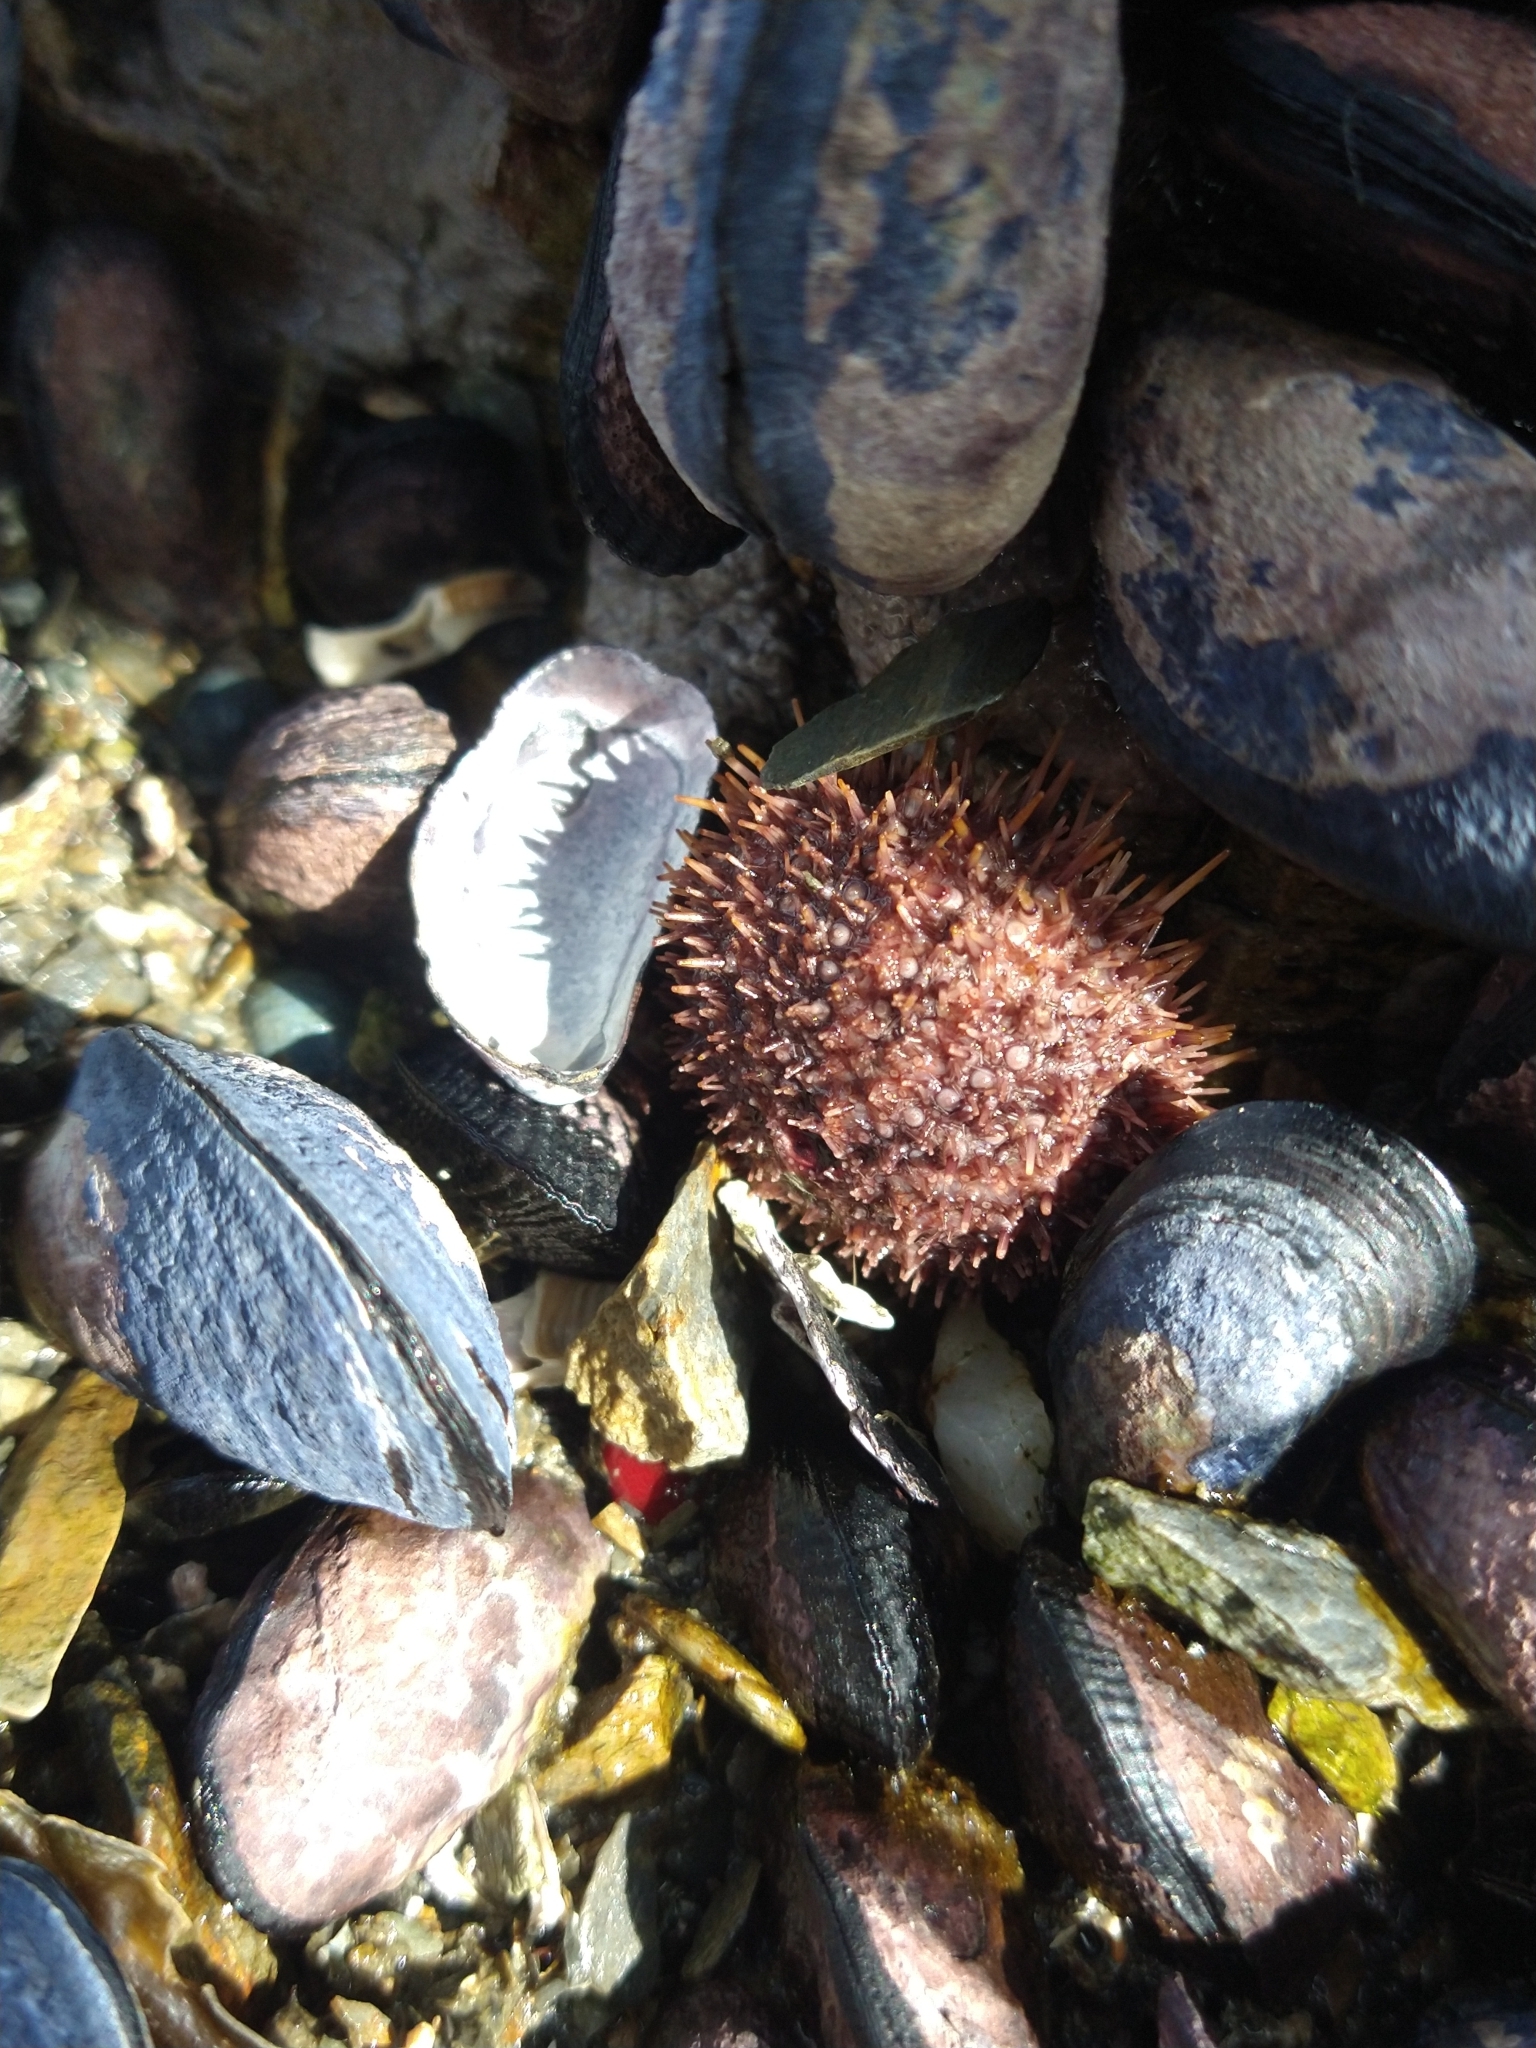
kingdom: Animalia
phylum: Echinodermata
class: Echinoidea
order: Camarodonta
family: Temnopleuridae
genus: Pseudechinus
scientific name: Pseudechinus magellanicus
